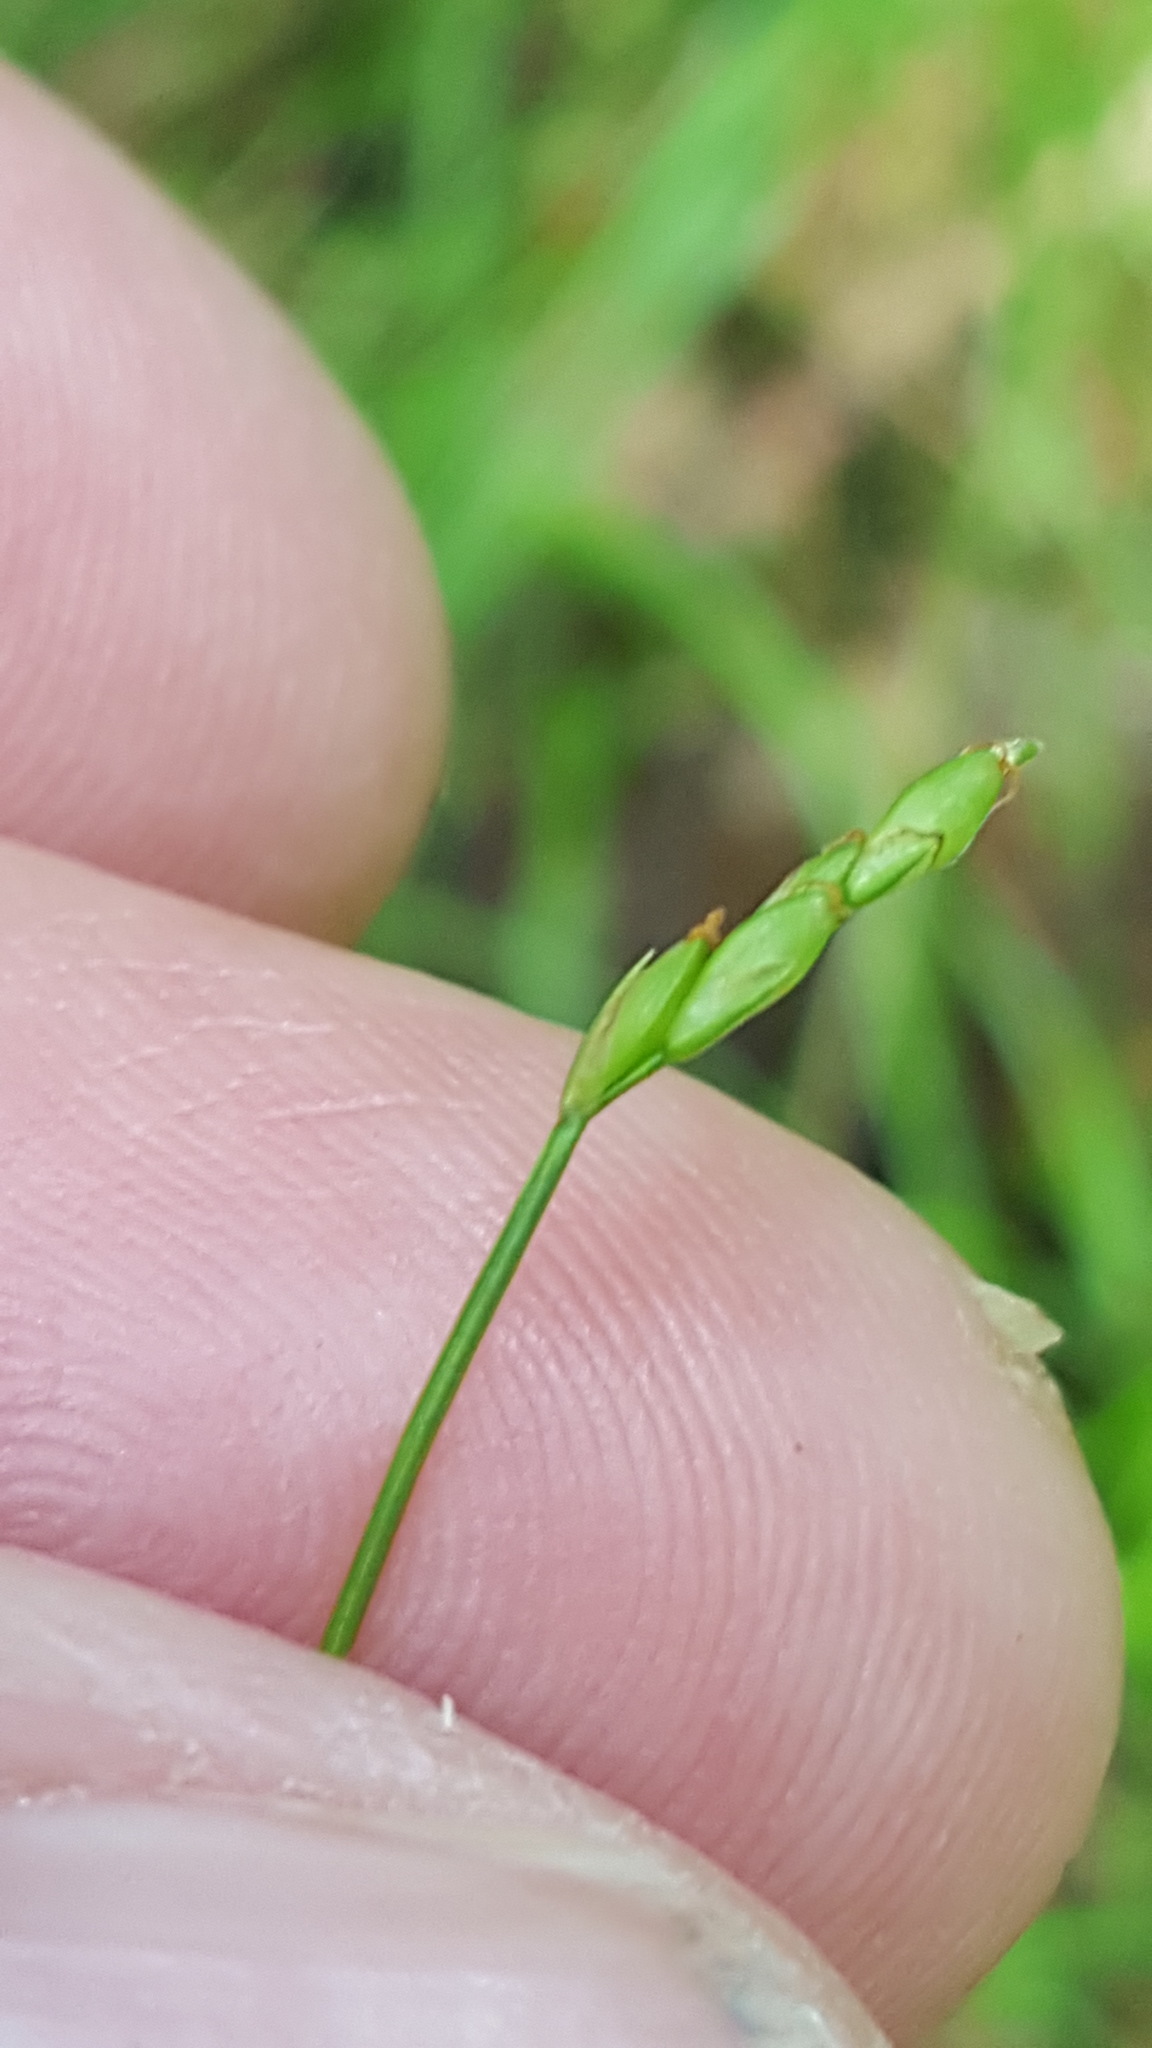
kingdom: Plantae
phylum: Tracheophyta
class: Liliopsida
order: Poales
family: Cyperaceae
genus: Carex
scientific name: Carex leptalea
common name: Bristly-stalked sedge
